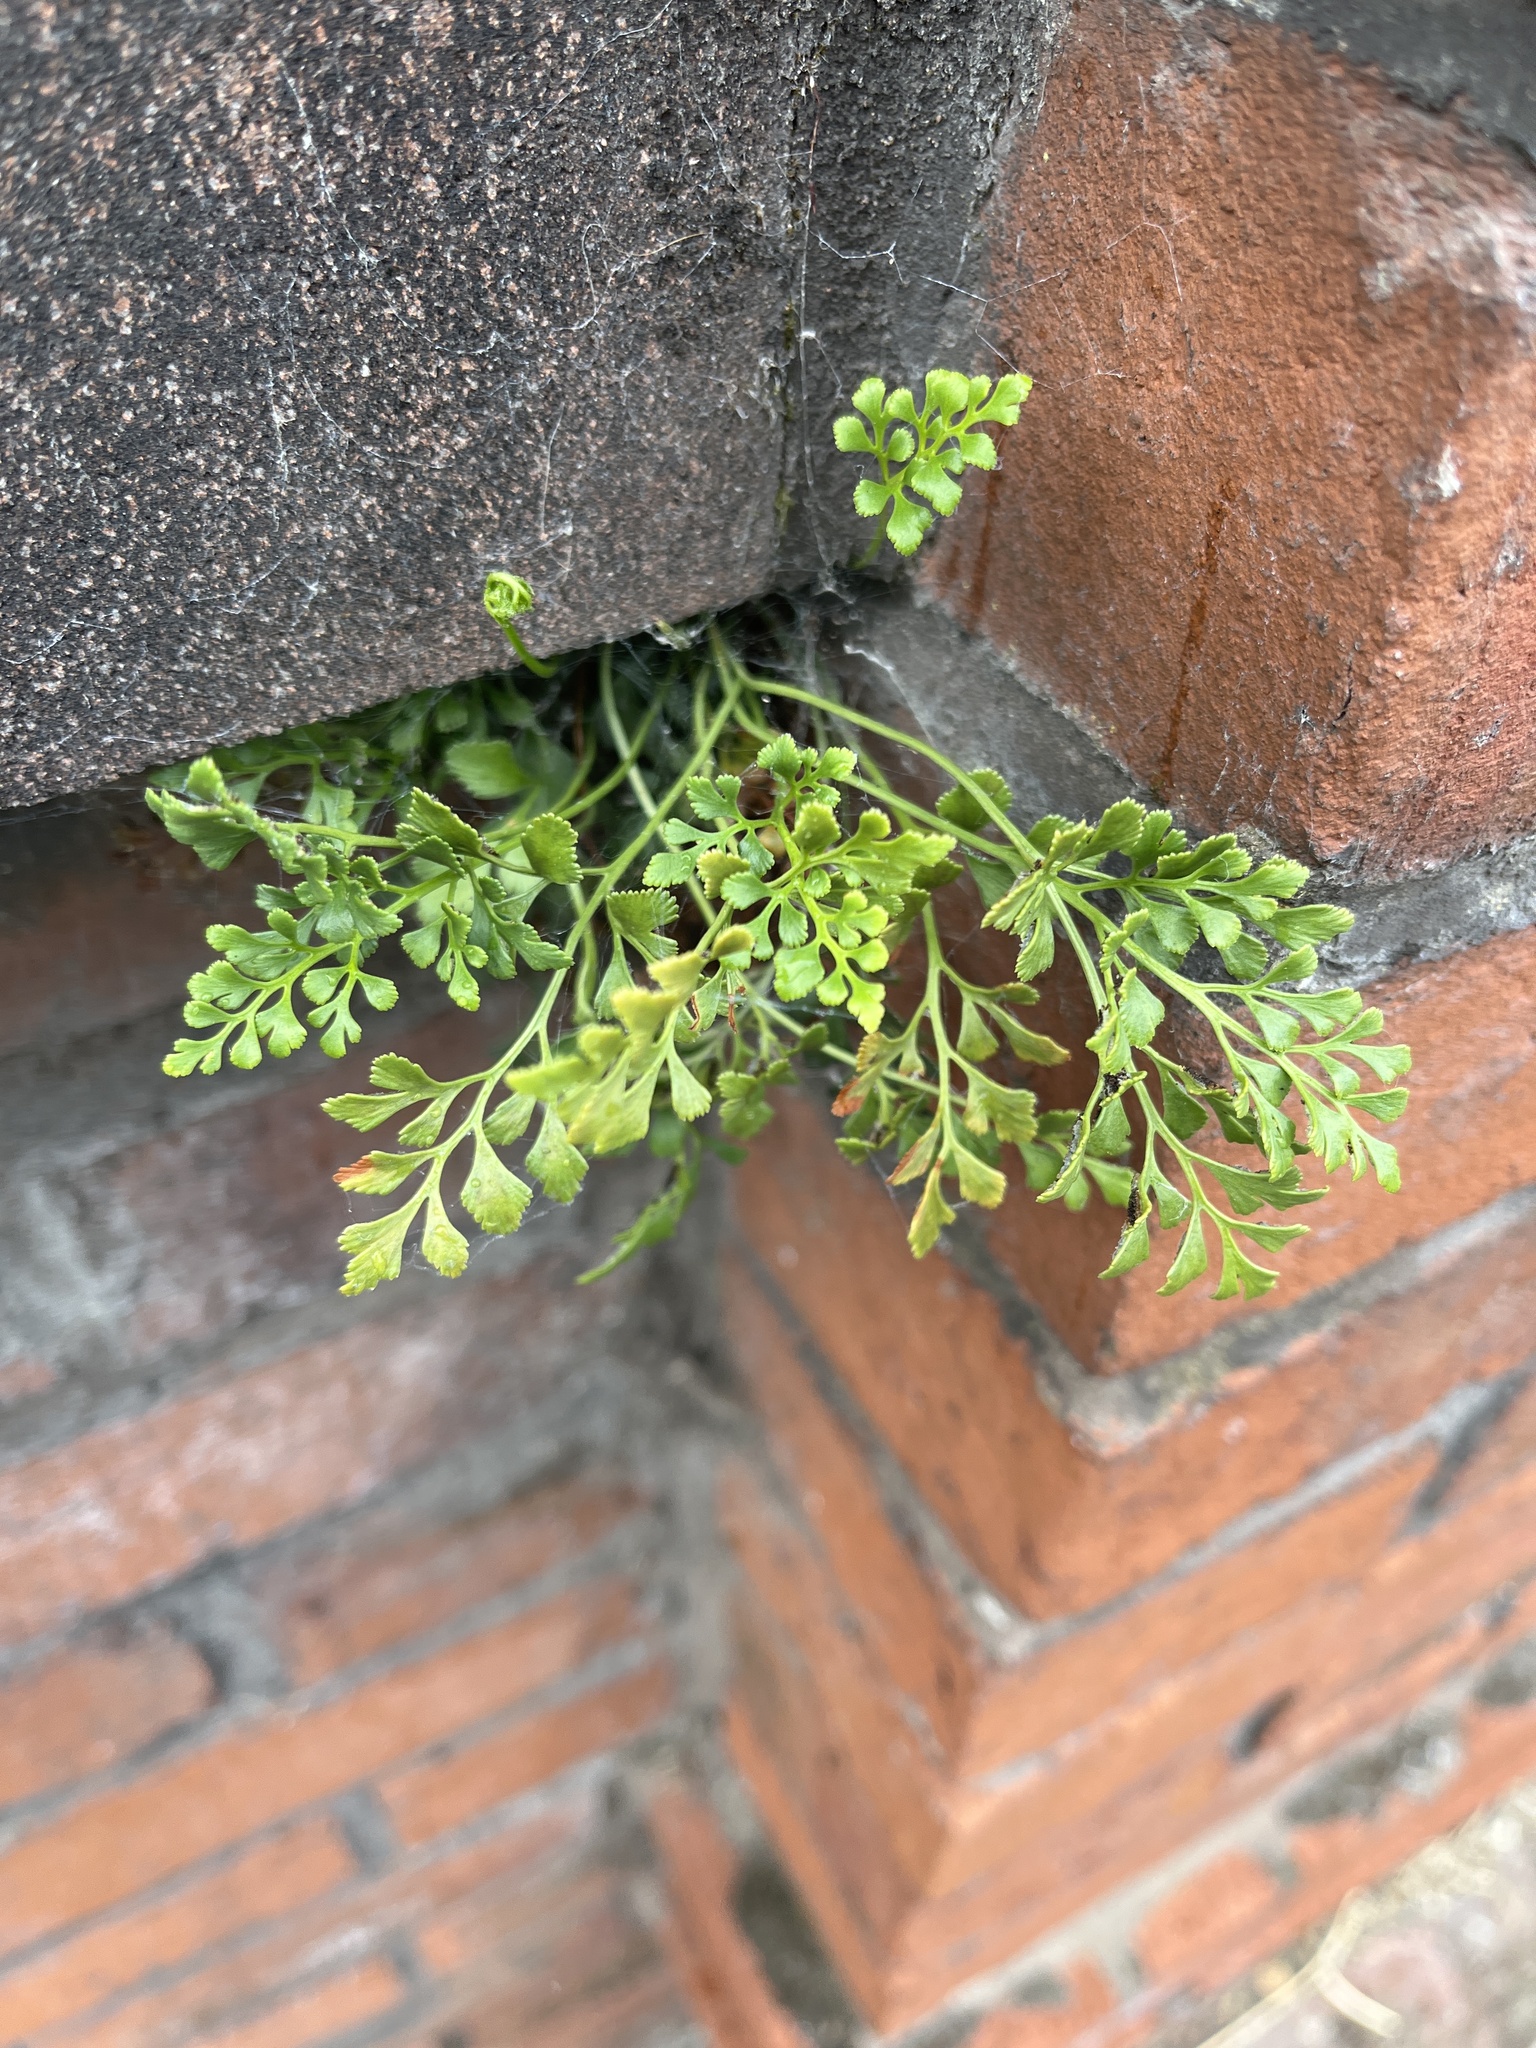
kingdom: Plantae
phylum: Tracheophyta
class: Polypodiopsida
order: Polypodiales
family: Aspleniaceae
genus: Asplenium
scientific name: Asplenium ruta-muraria
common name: Wall-rue
